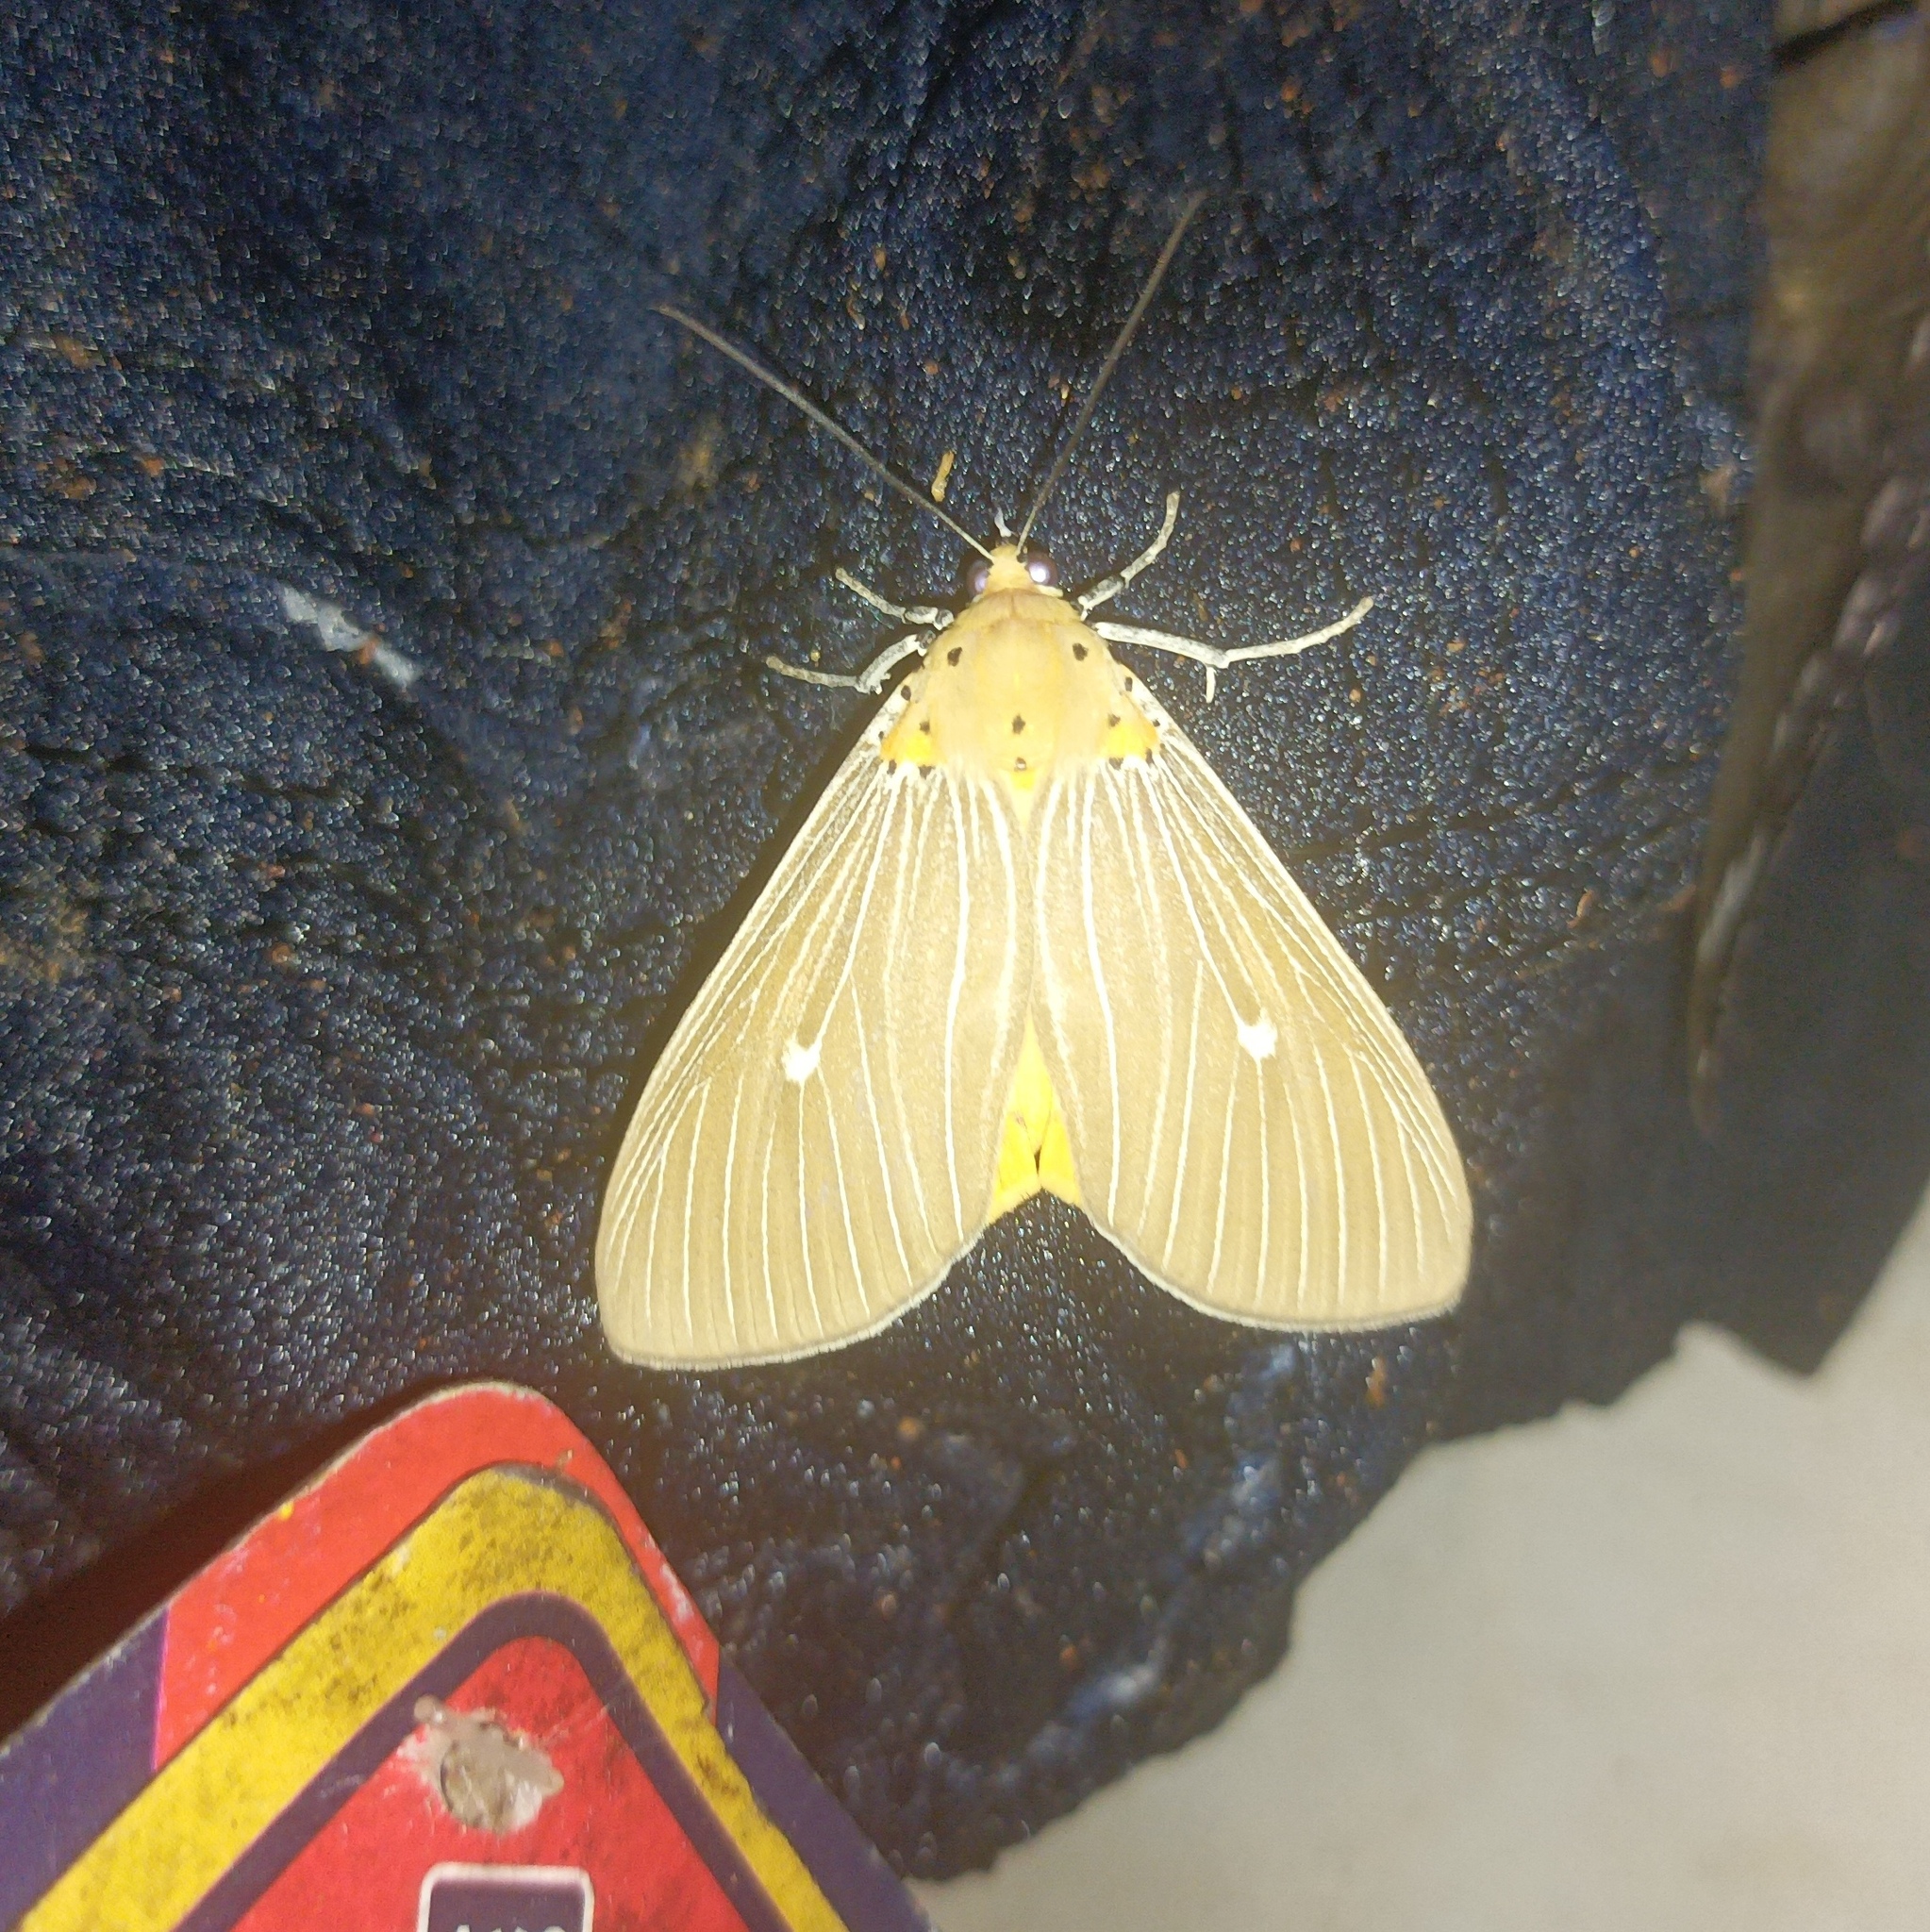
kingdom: Animalia
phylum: Arthropoda
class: Insecta
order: Lepidoptera
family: Erebidae
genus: Asota
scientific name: Asota caricae
